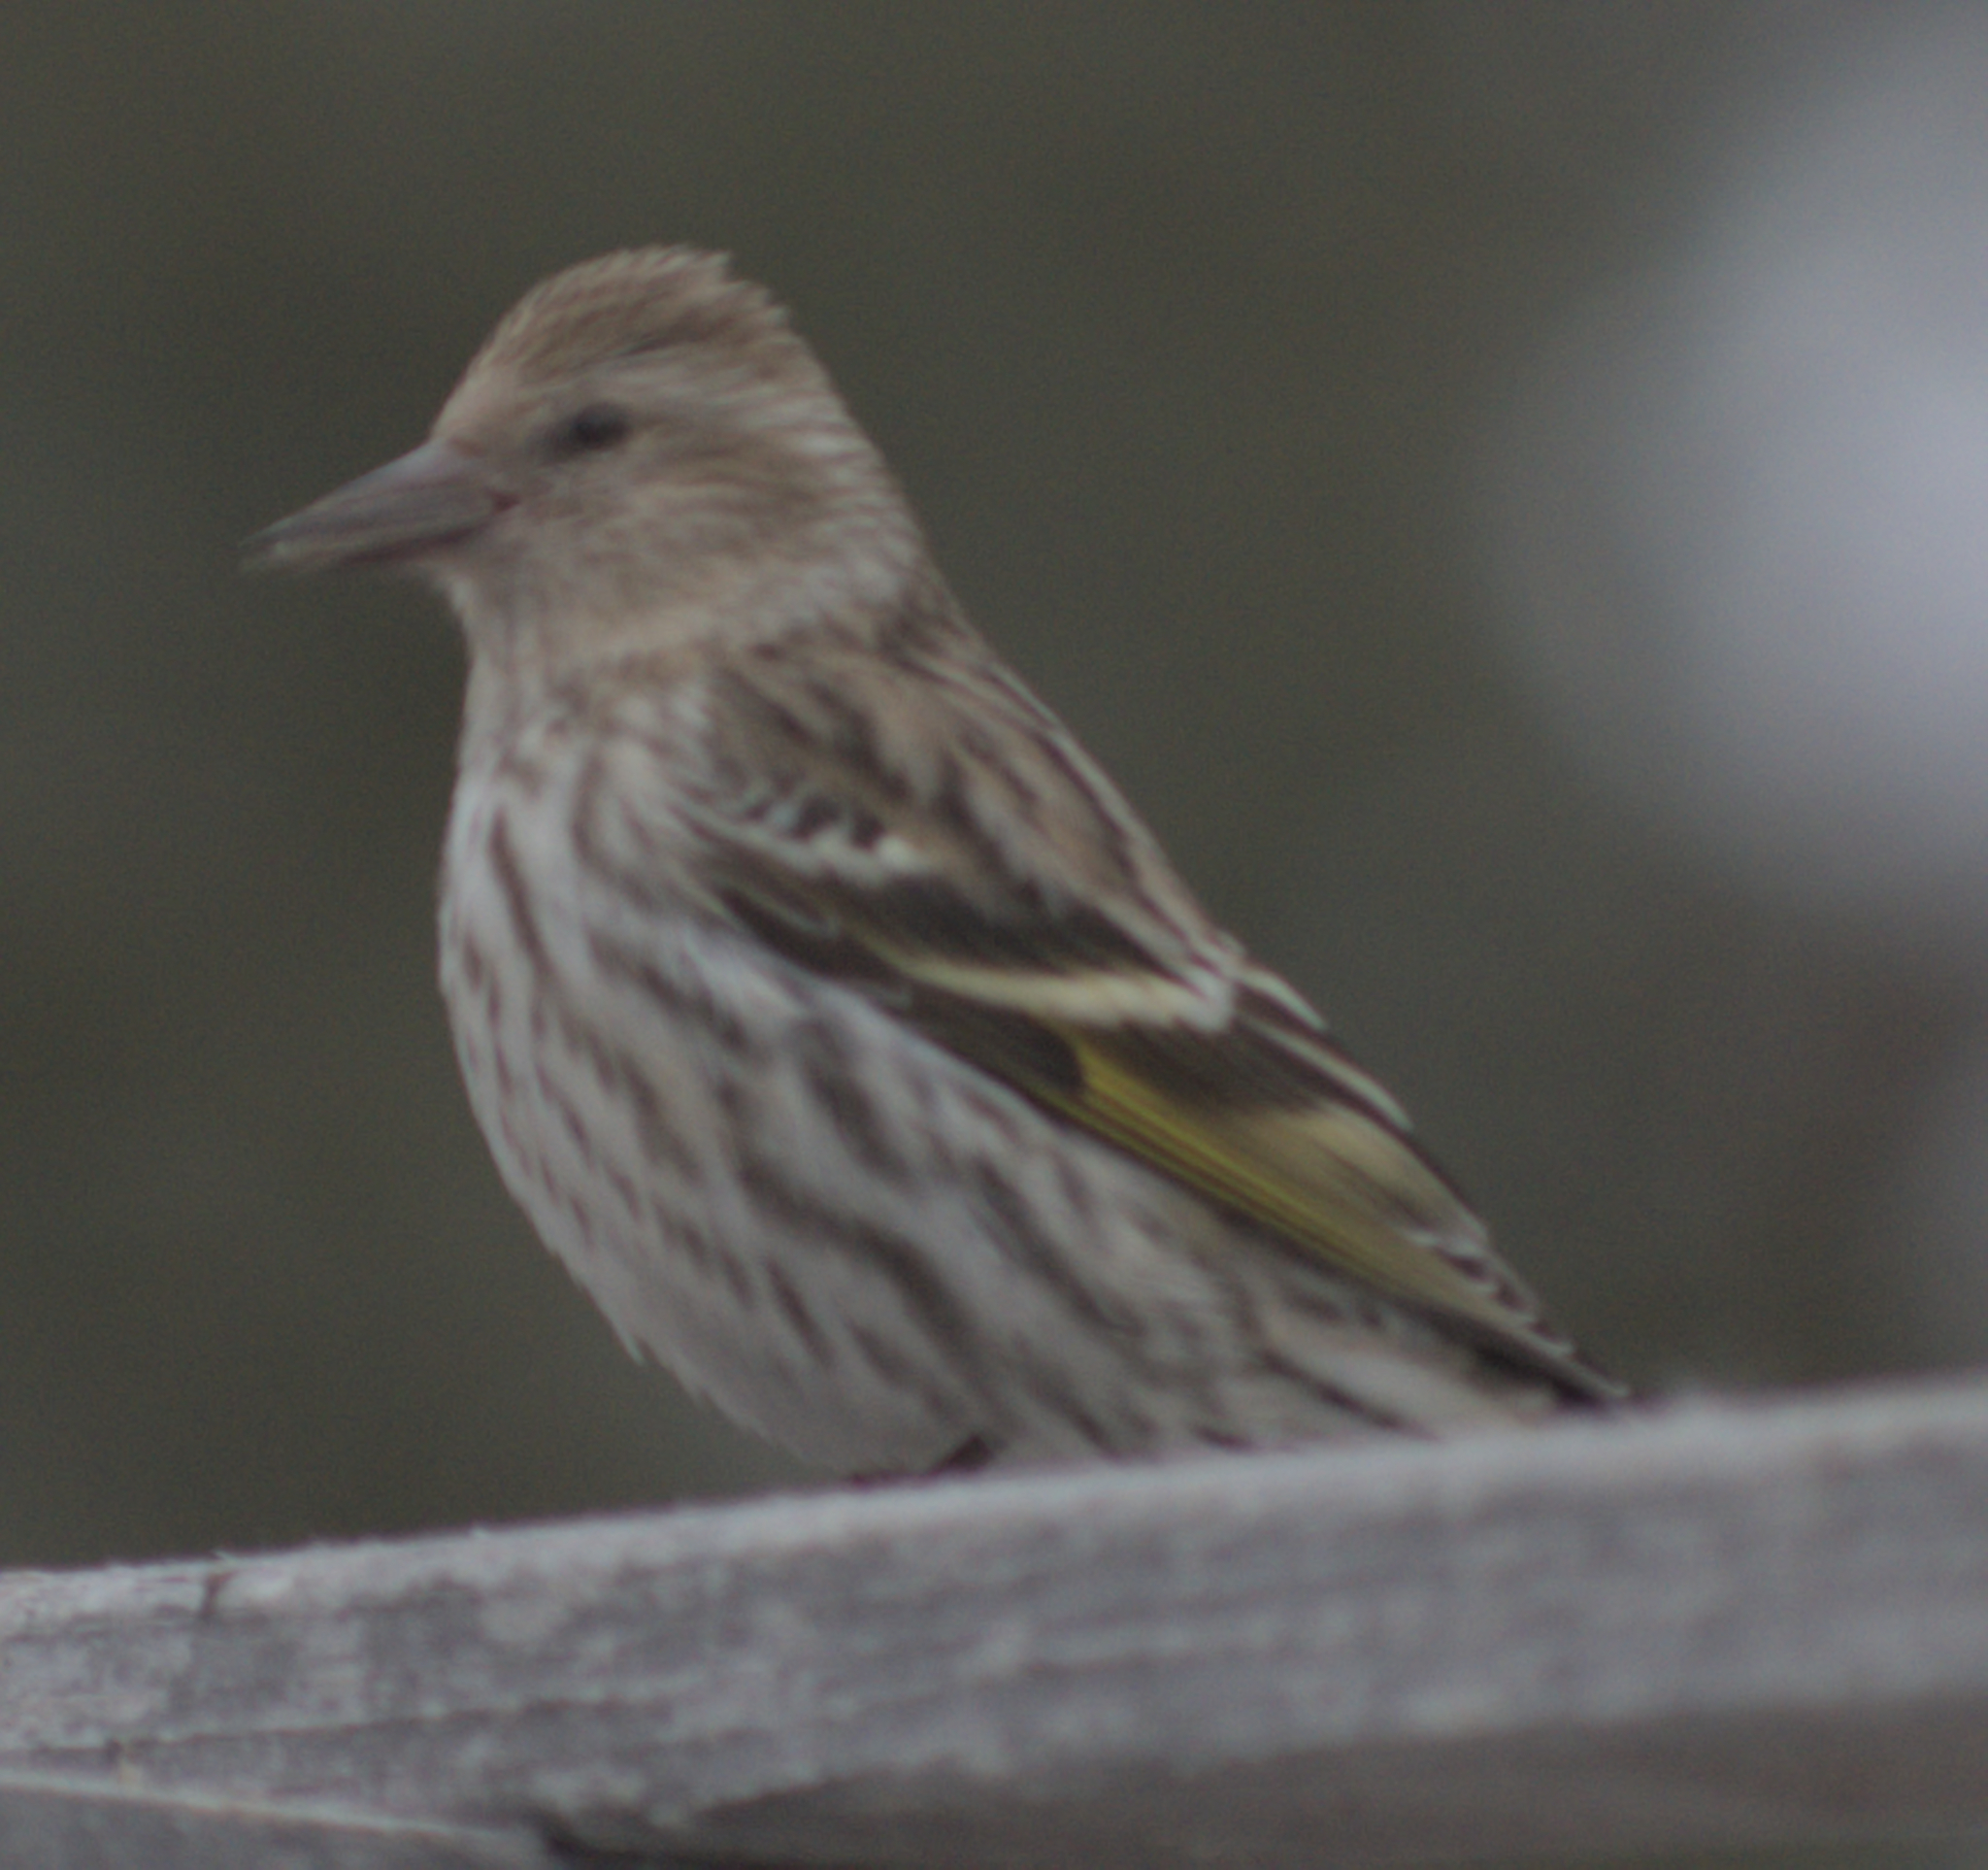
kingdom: Animalia
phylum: Chordata
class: Aves
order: Passeriformes
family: Fringillidae
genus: Spinus
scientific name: Spinus pinus
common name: Pine siskin
